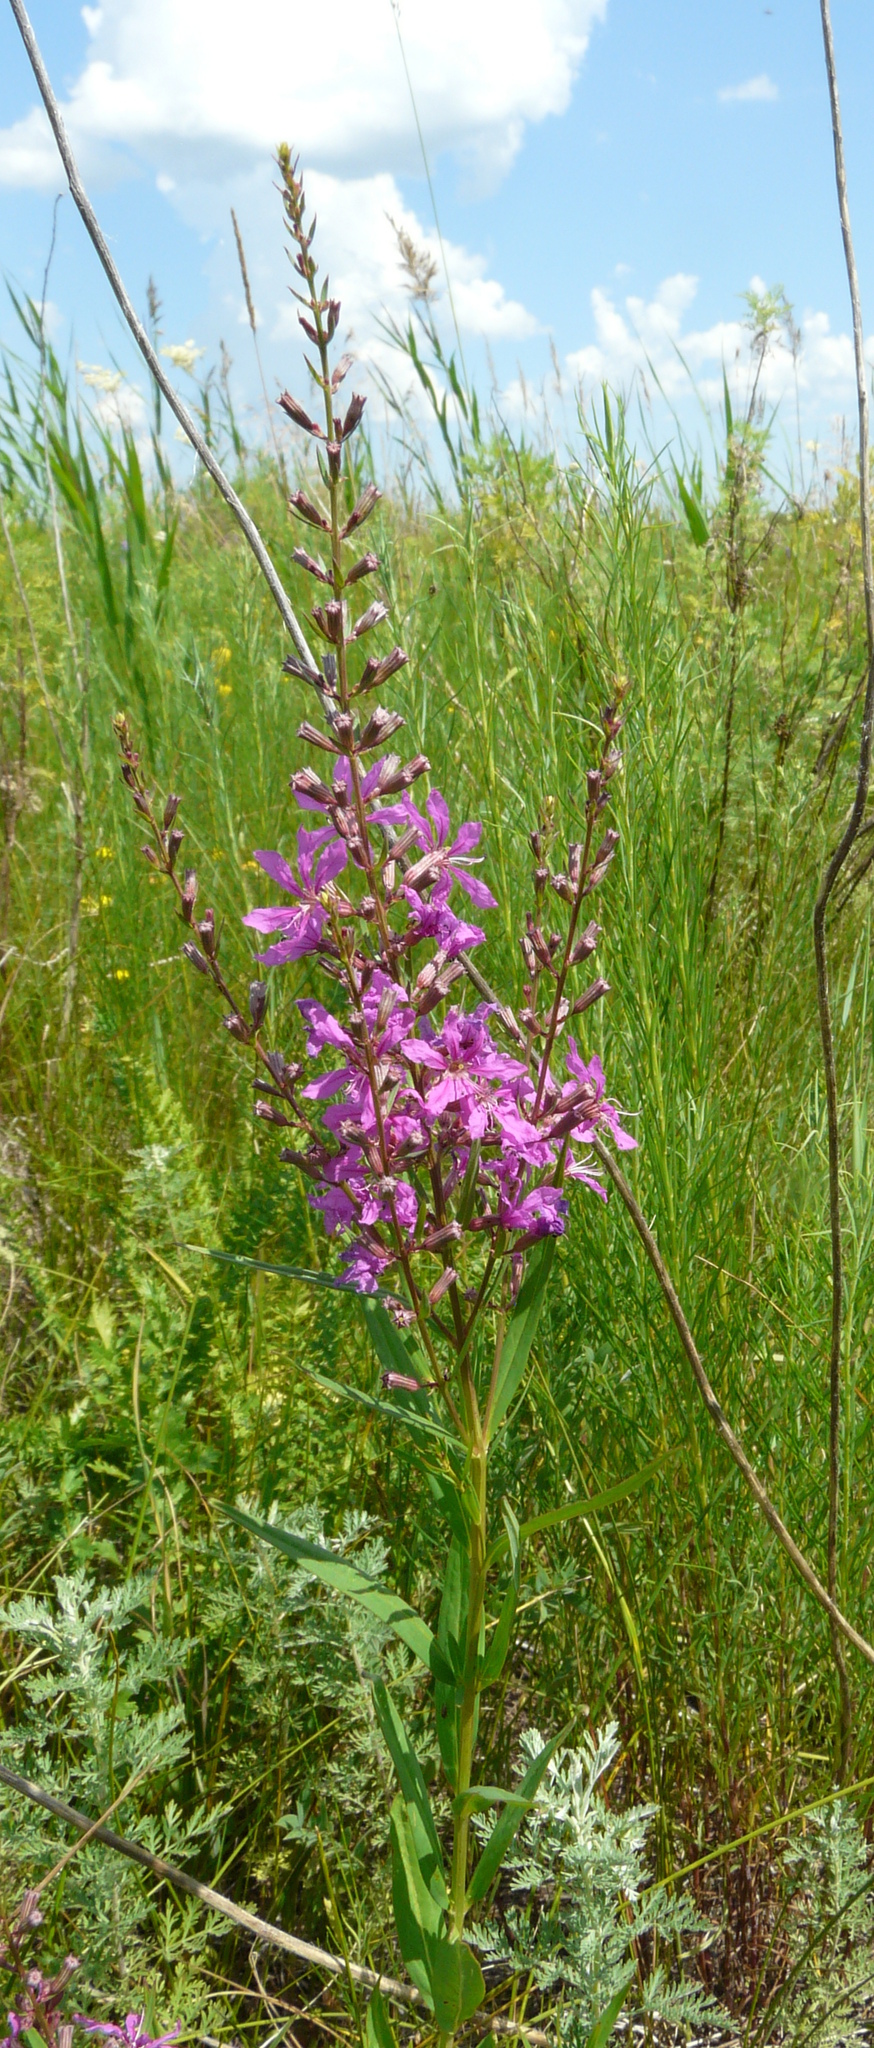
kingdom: Plantae
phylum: Tracheophyta
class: Magnoliopsida
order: Myrtales
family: Lythraceae
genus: Lythrum
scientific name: Lythrum virgatum
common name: European wand loosestrife
